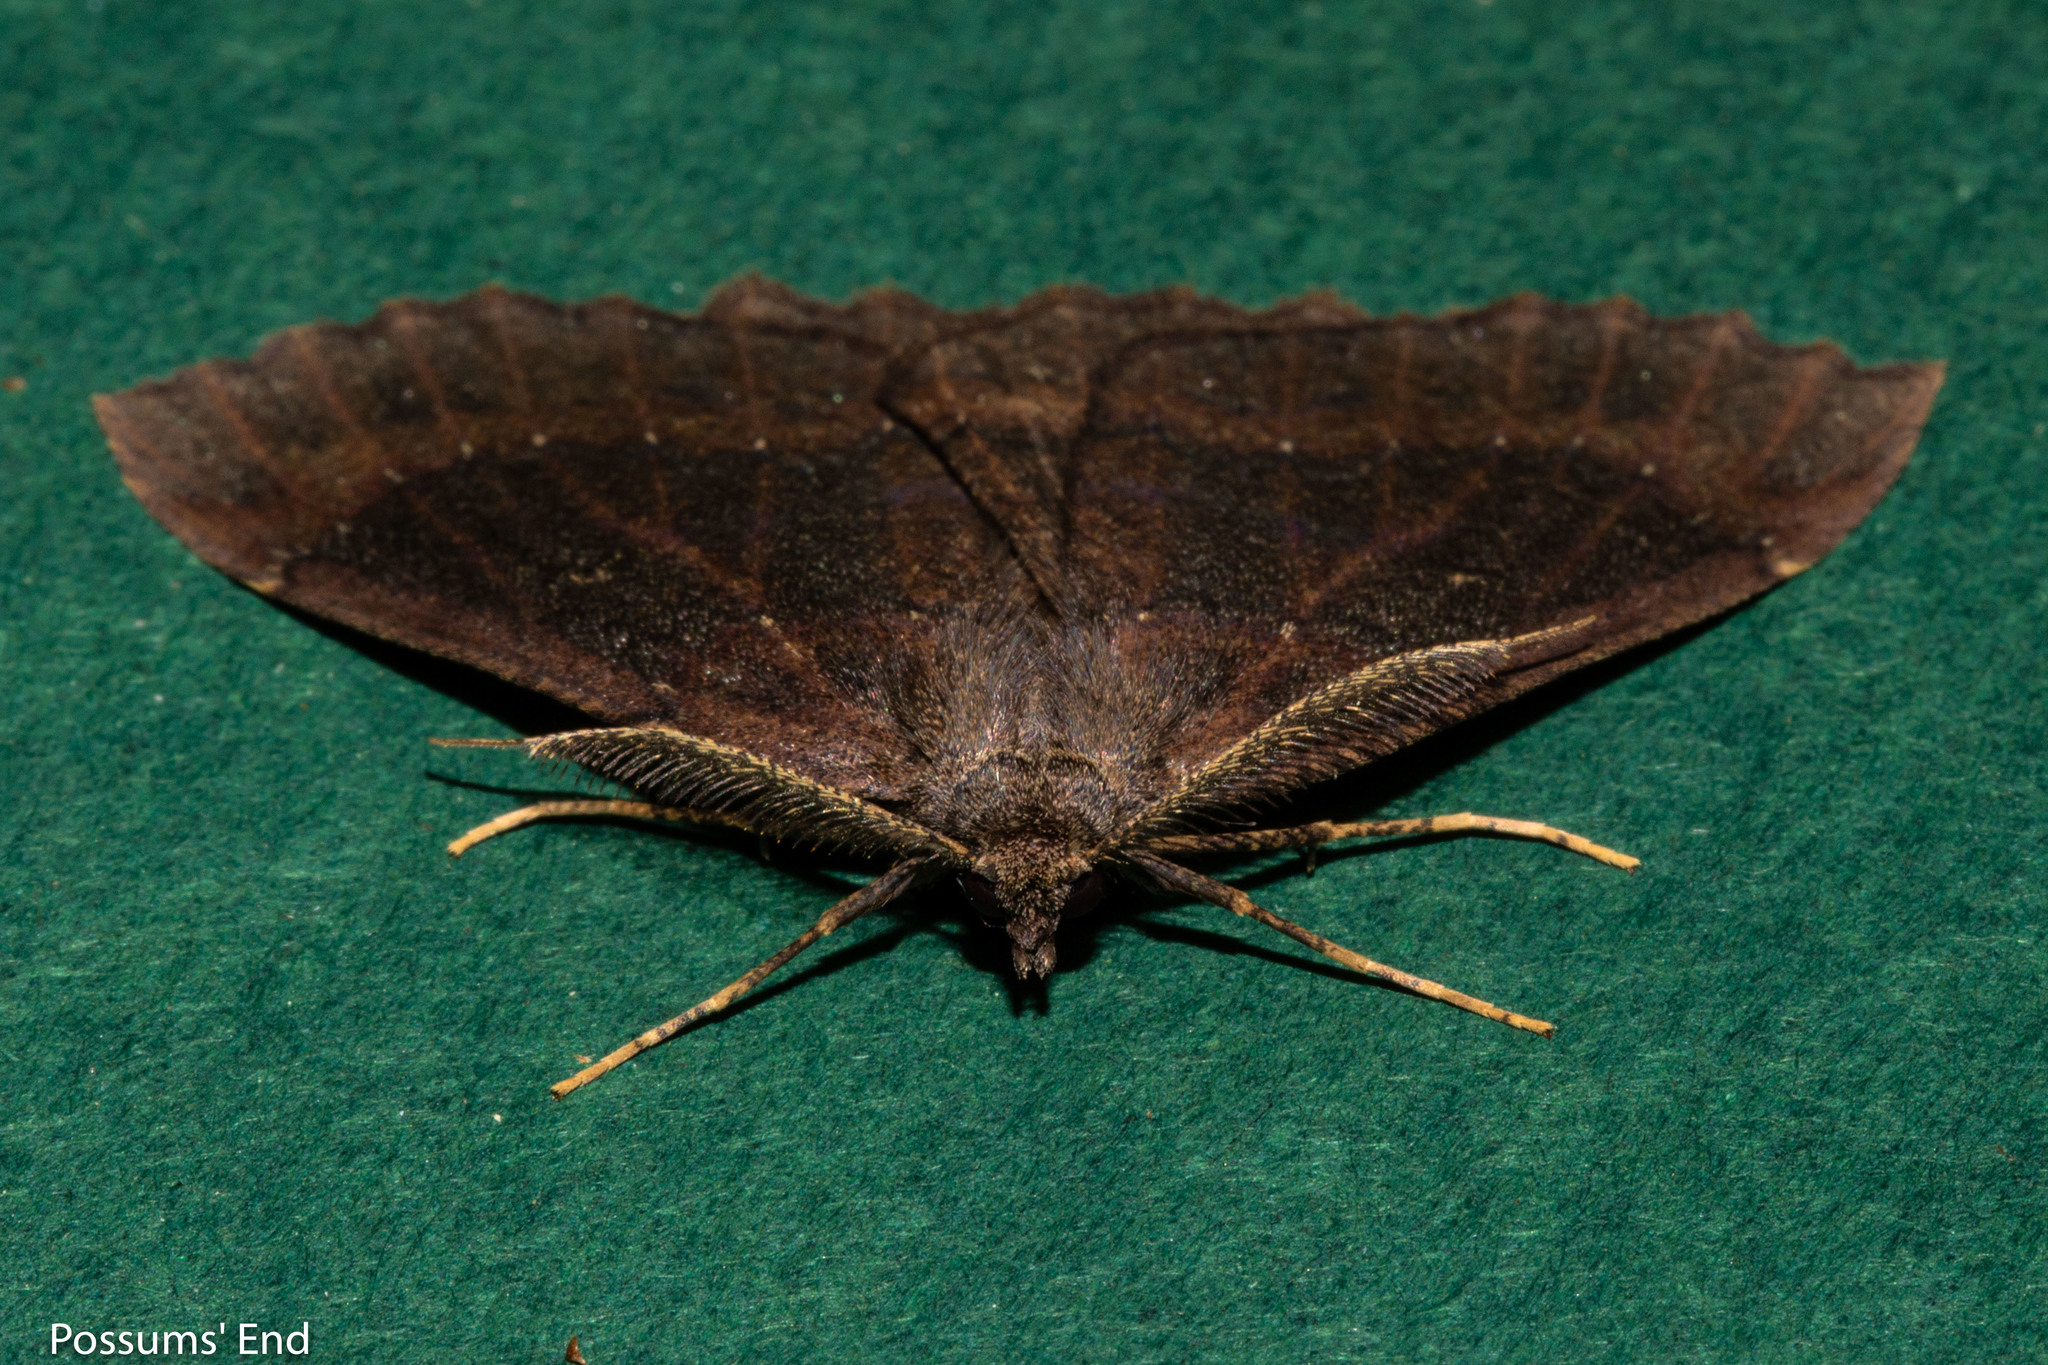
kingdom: Animalia
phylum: Arthropoda
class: Insecta
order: Lepidoptera
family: Geometridae
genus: Cleora
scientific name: Cleora scriptaria
